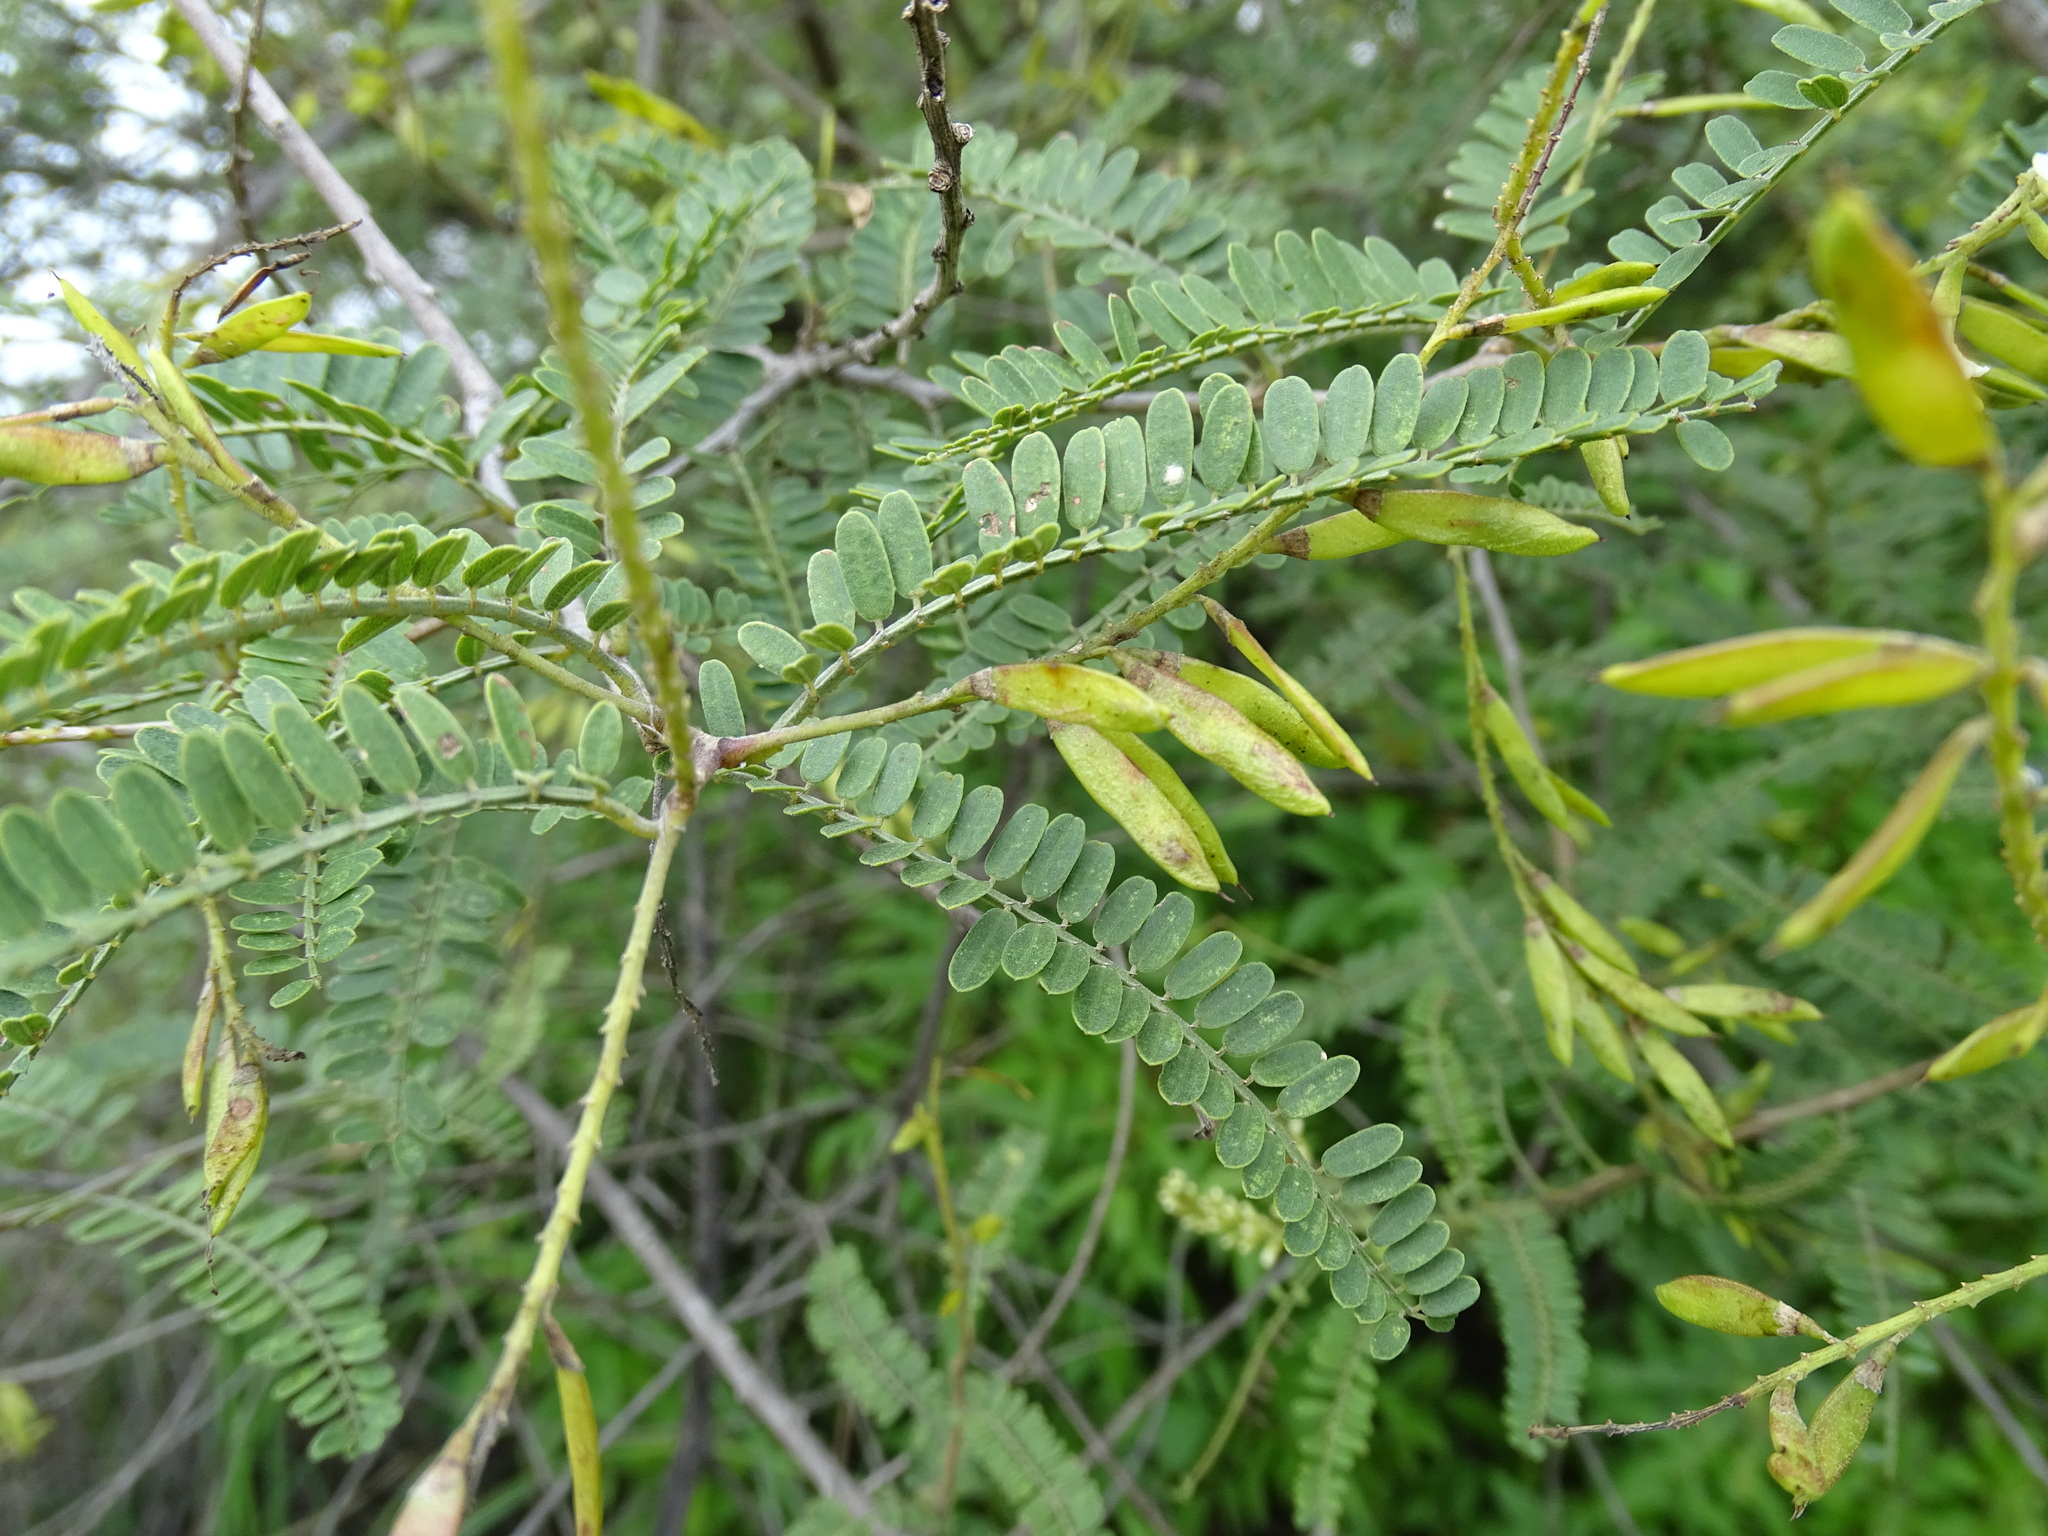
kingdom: Plantae
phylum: Tracheophyta
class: Magnoliopsida
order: Fabales
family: Fabaceae
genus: Eysenhardtia
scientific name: Eysenhardtia polystachya
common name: Kidneywood
